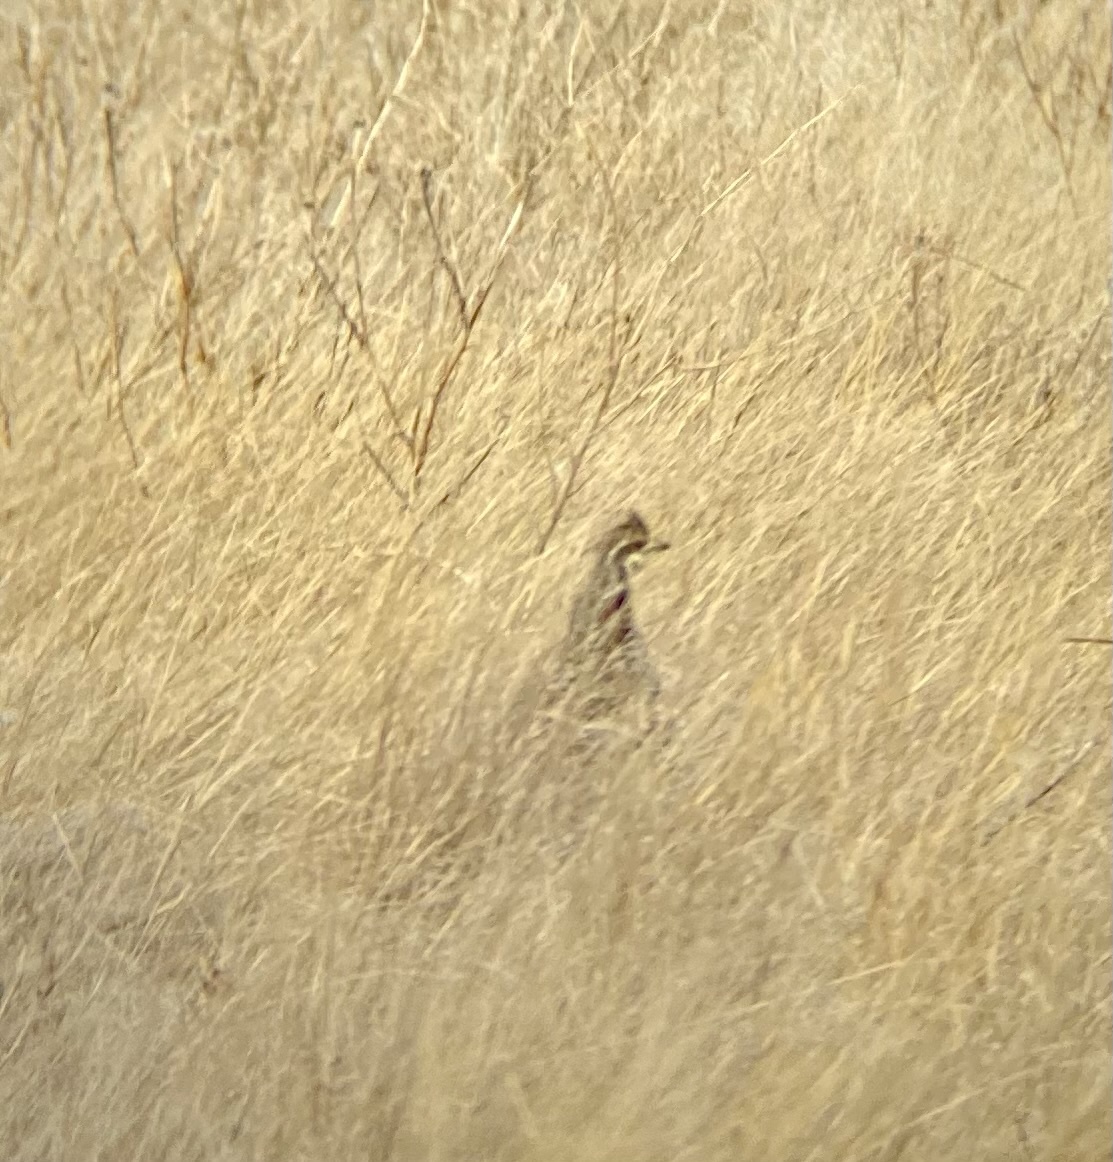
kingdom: Animalia
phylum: Chordata
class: Aves
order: Galliformes
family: Phasianidae
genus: Tympanuchus
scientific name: Tympanuchus phasianellus
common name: Sharp-tailed grouse
